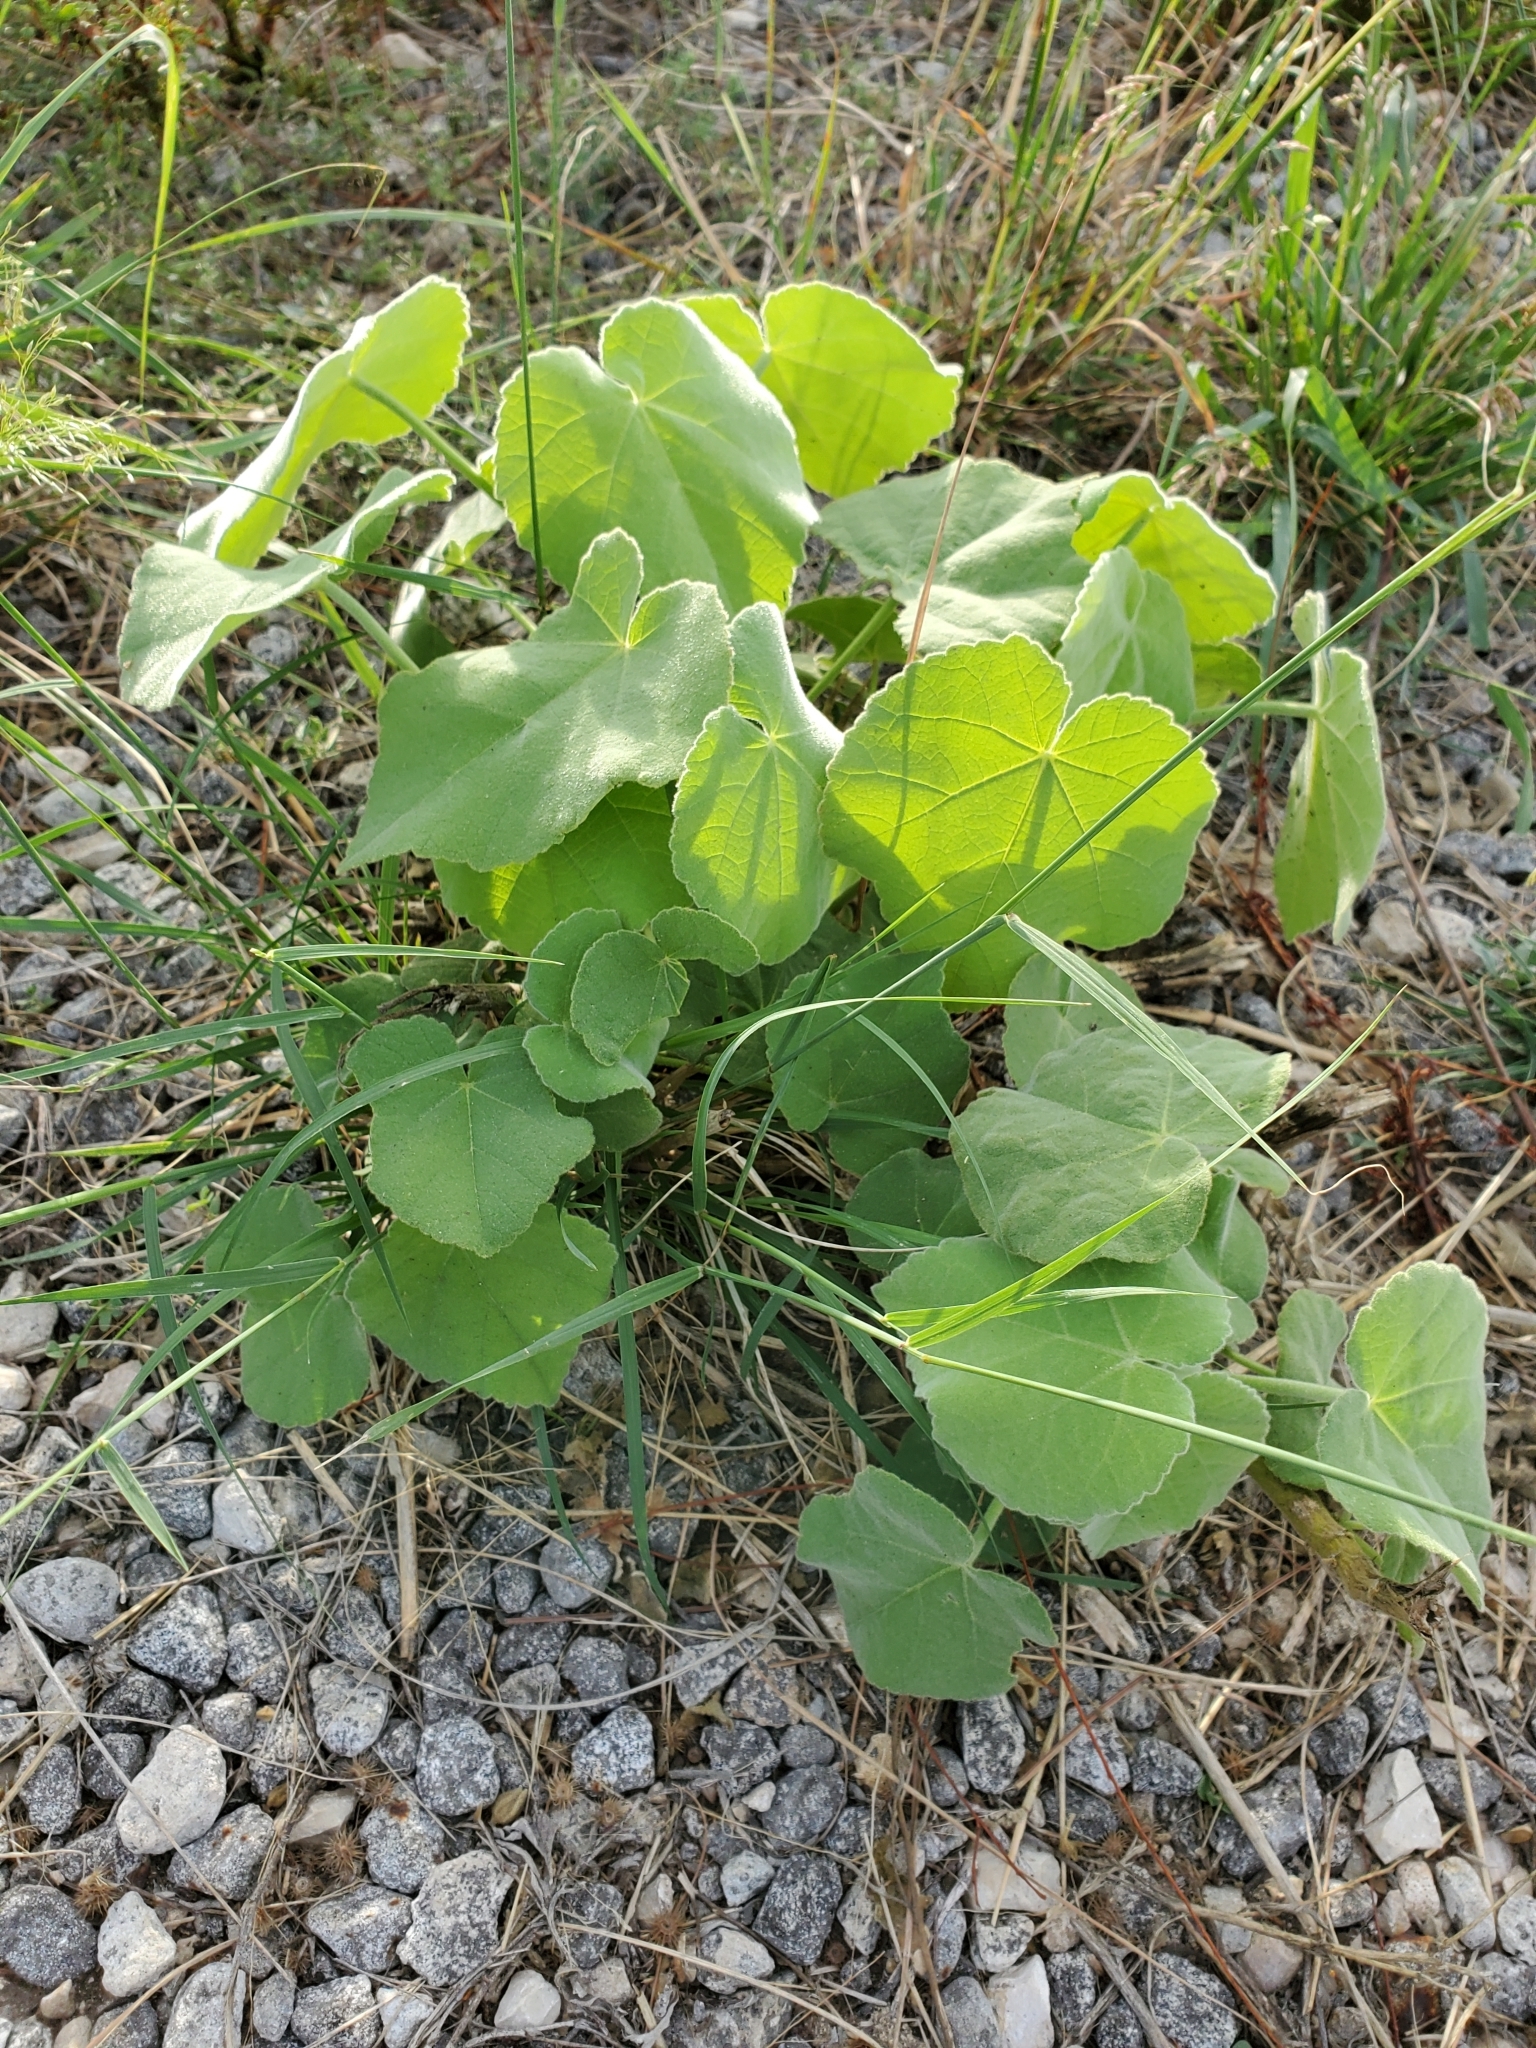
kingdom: Plantae
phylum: Tracheophyta
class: Magnoliopsida
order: Malvales
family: Malvaceae
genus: Allowissadula
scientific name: Allowissadula holosericea
